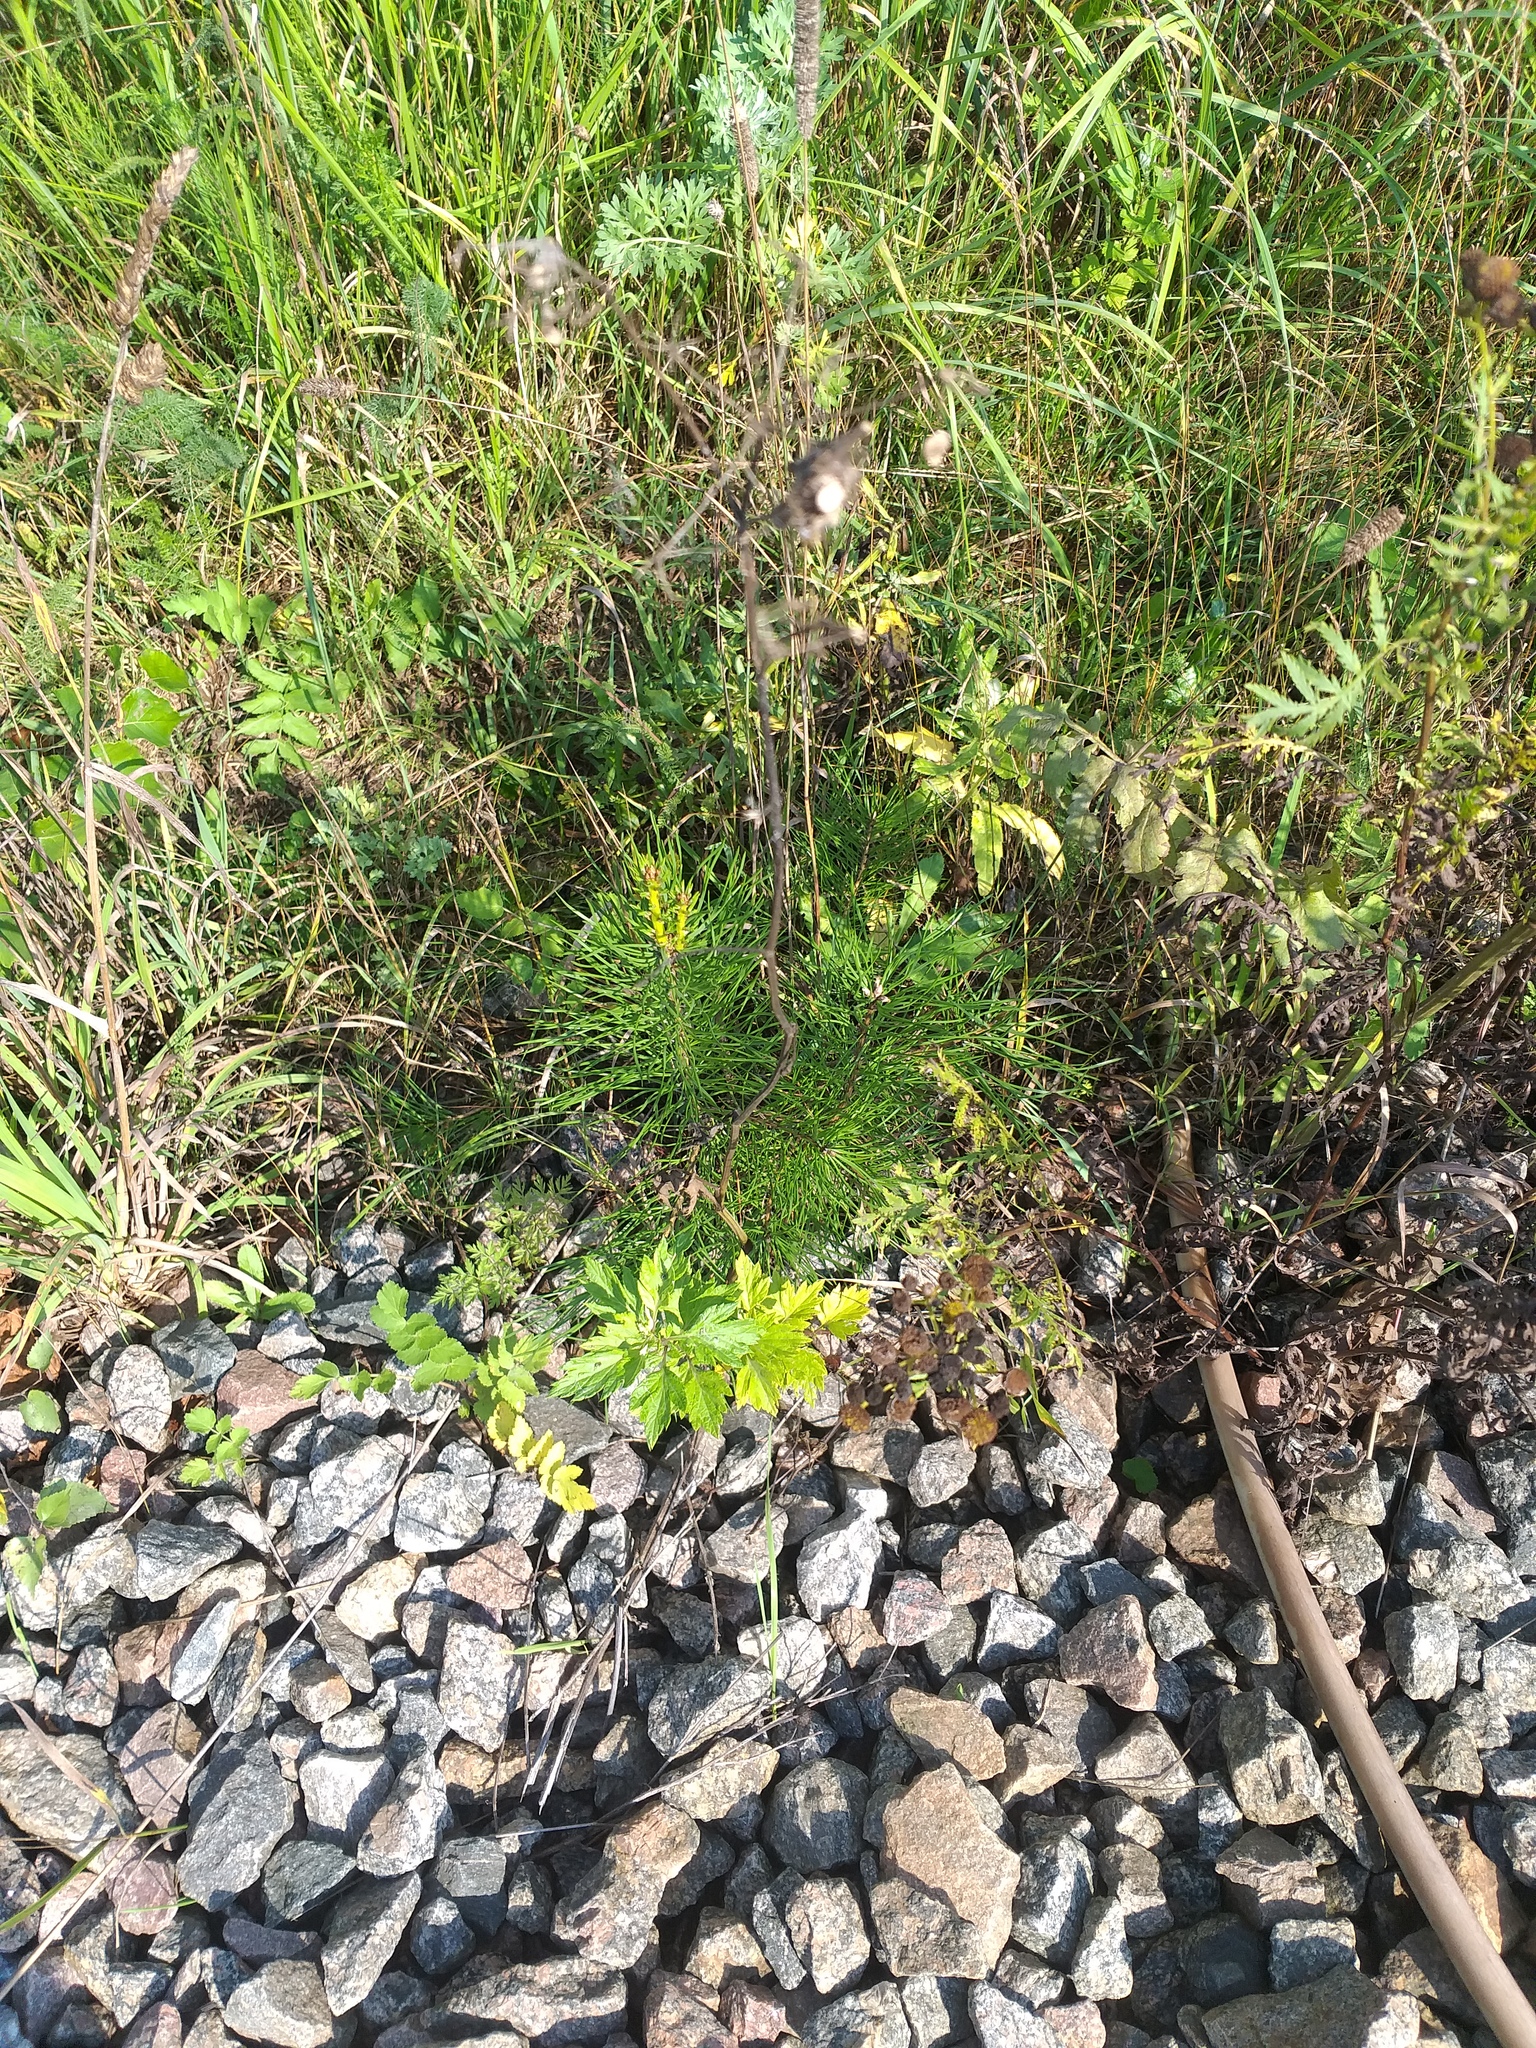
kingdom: Plantae
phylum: Tracheophyta
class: Pinopsida
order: Pinales
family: Pinaceae
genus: Pinus
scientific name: Pinus sylvestris
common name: Scots pine
